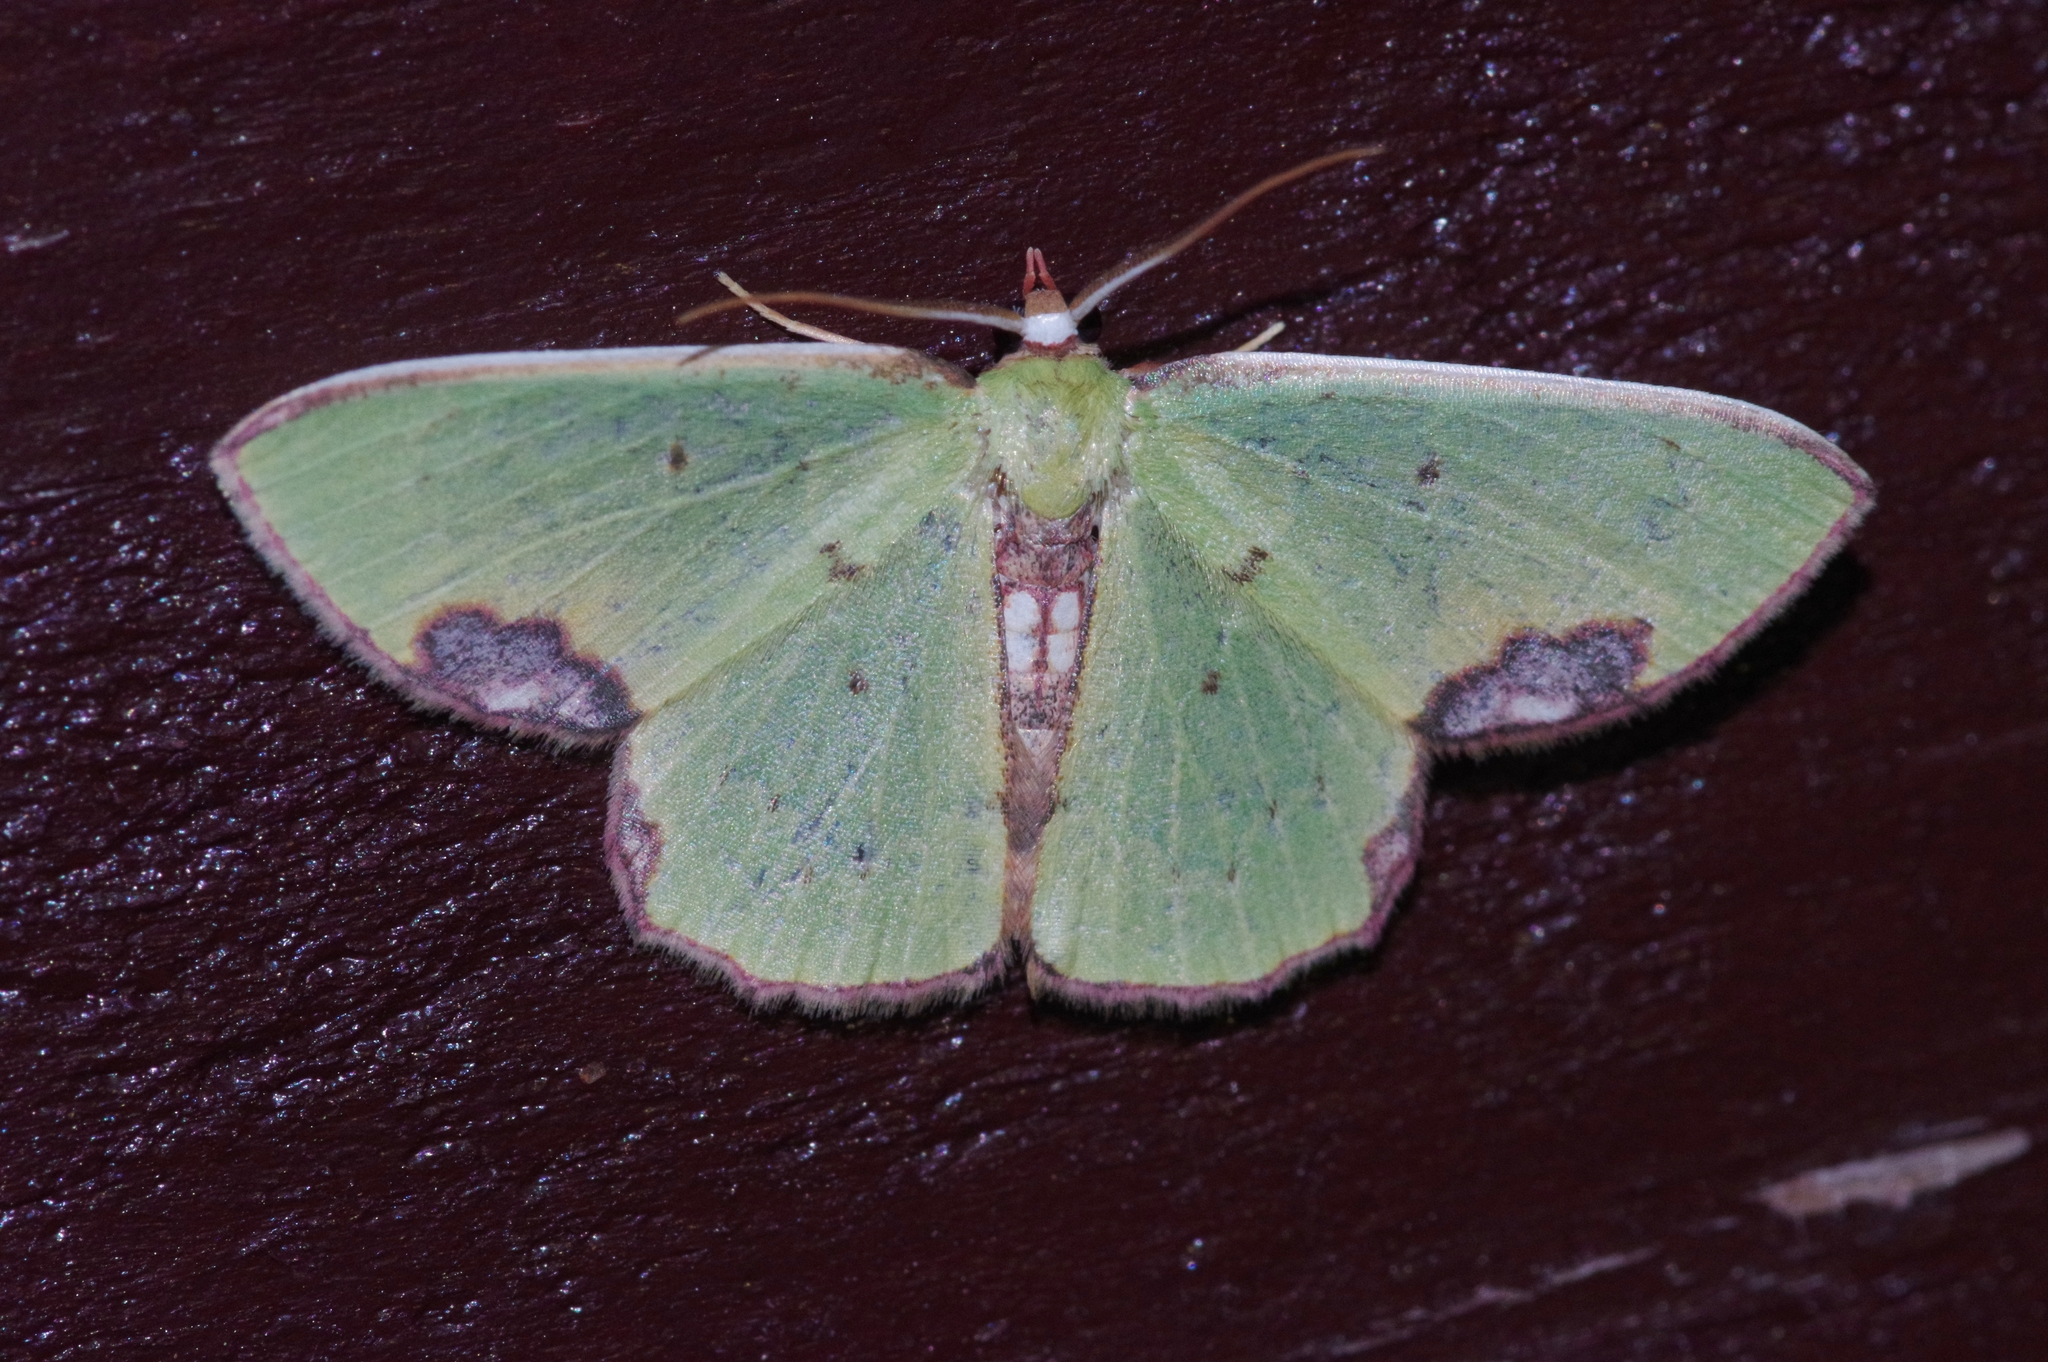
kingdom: Animalia
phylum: Arthropoda
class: Insecta
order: Lepidoptera
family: Geometridae
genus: Spaniocentra
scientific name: Spaniocentra hollowayi
